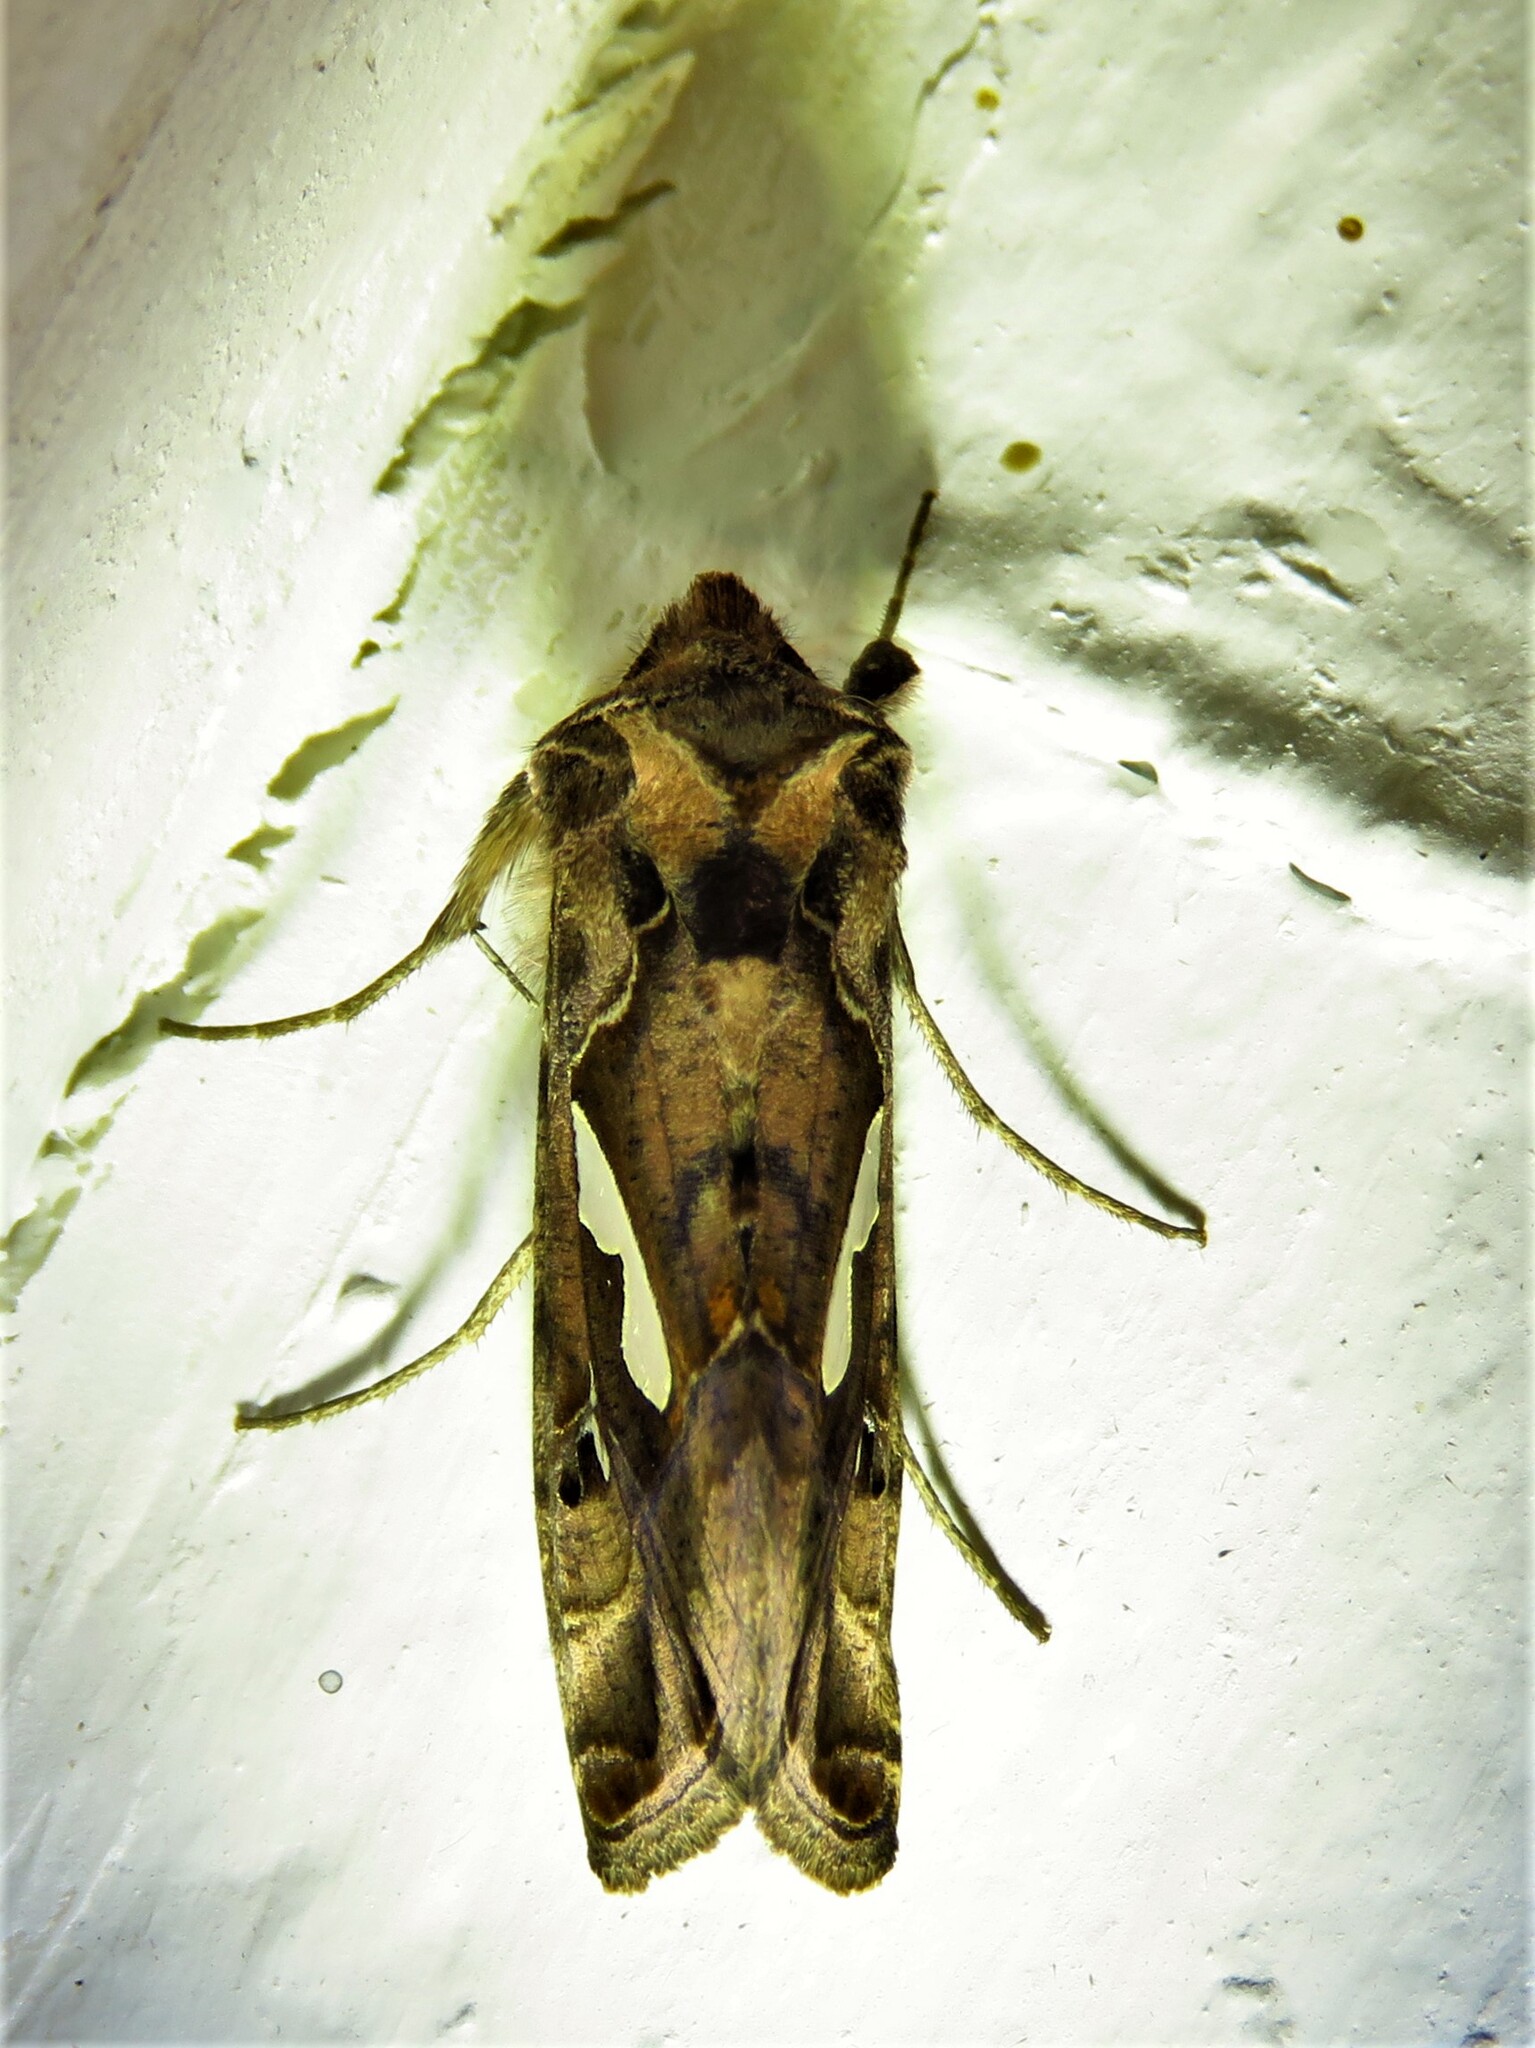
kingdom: Animalia
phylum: Arthropoda
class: Insecta
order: Lepidoptera
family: Noctuidae
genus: Megalographa
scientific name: Megalographa biloba
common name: Cutworm
